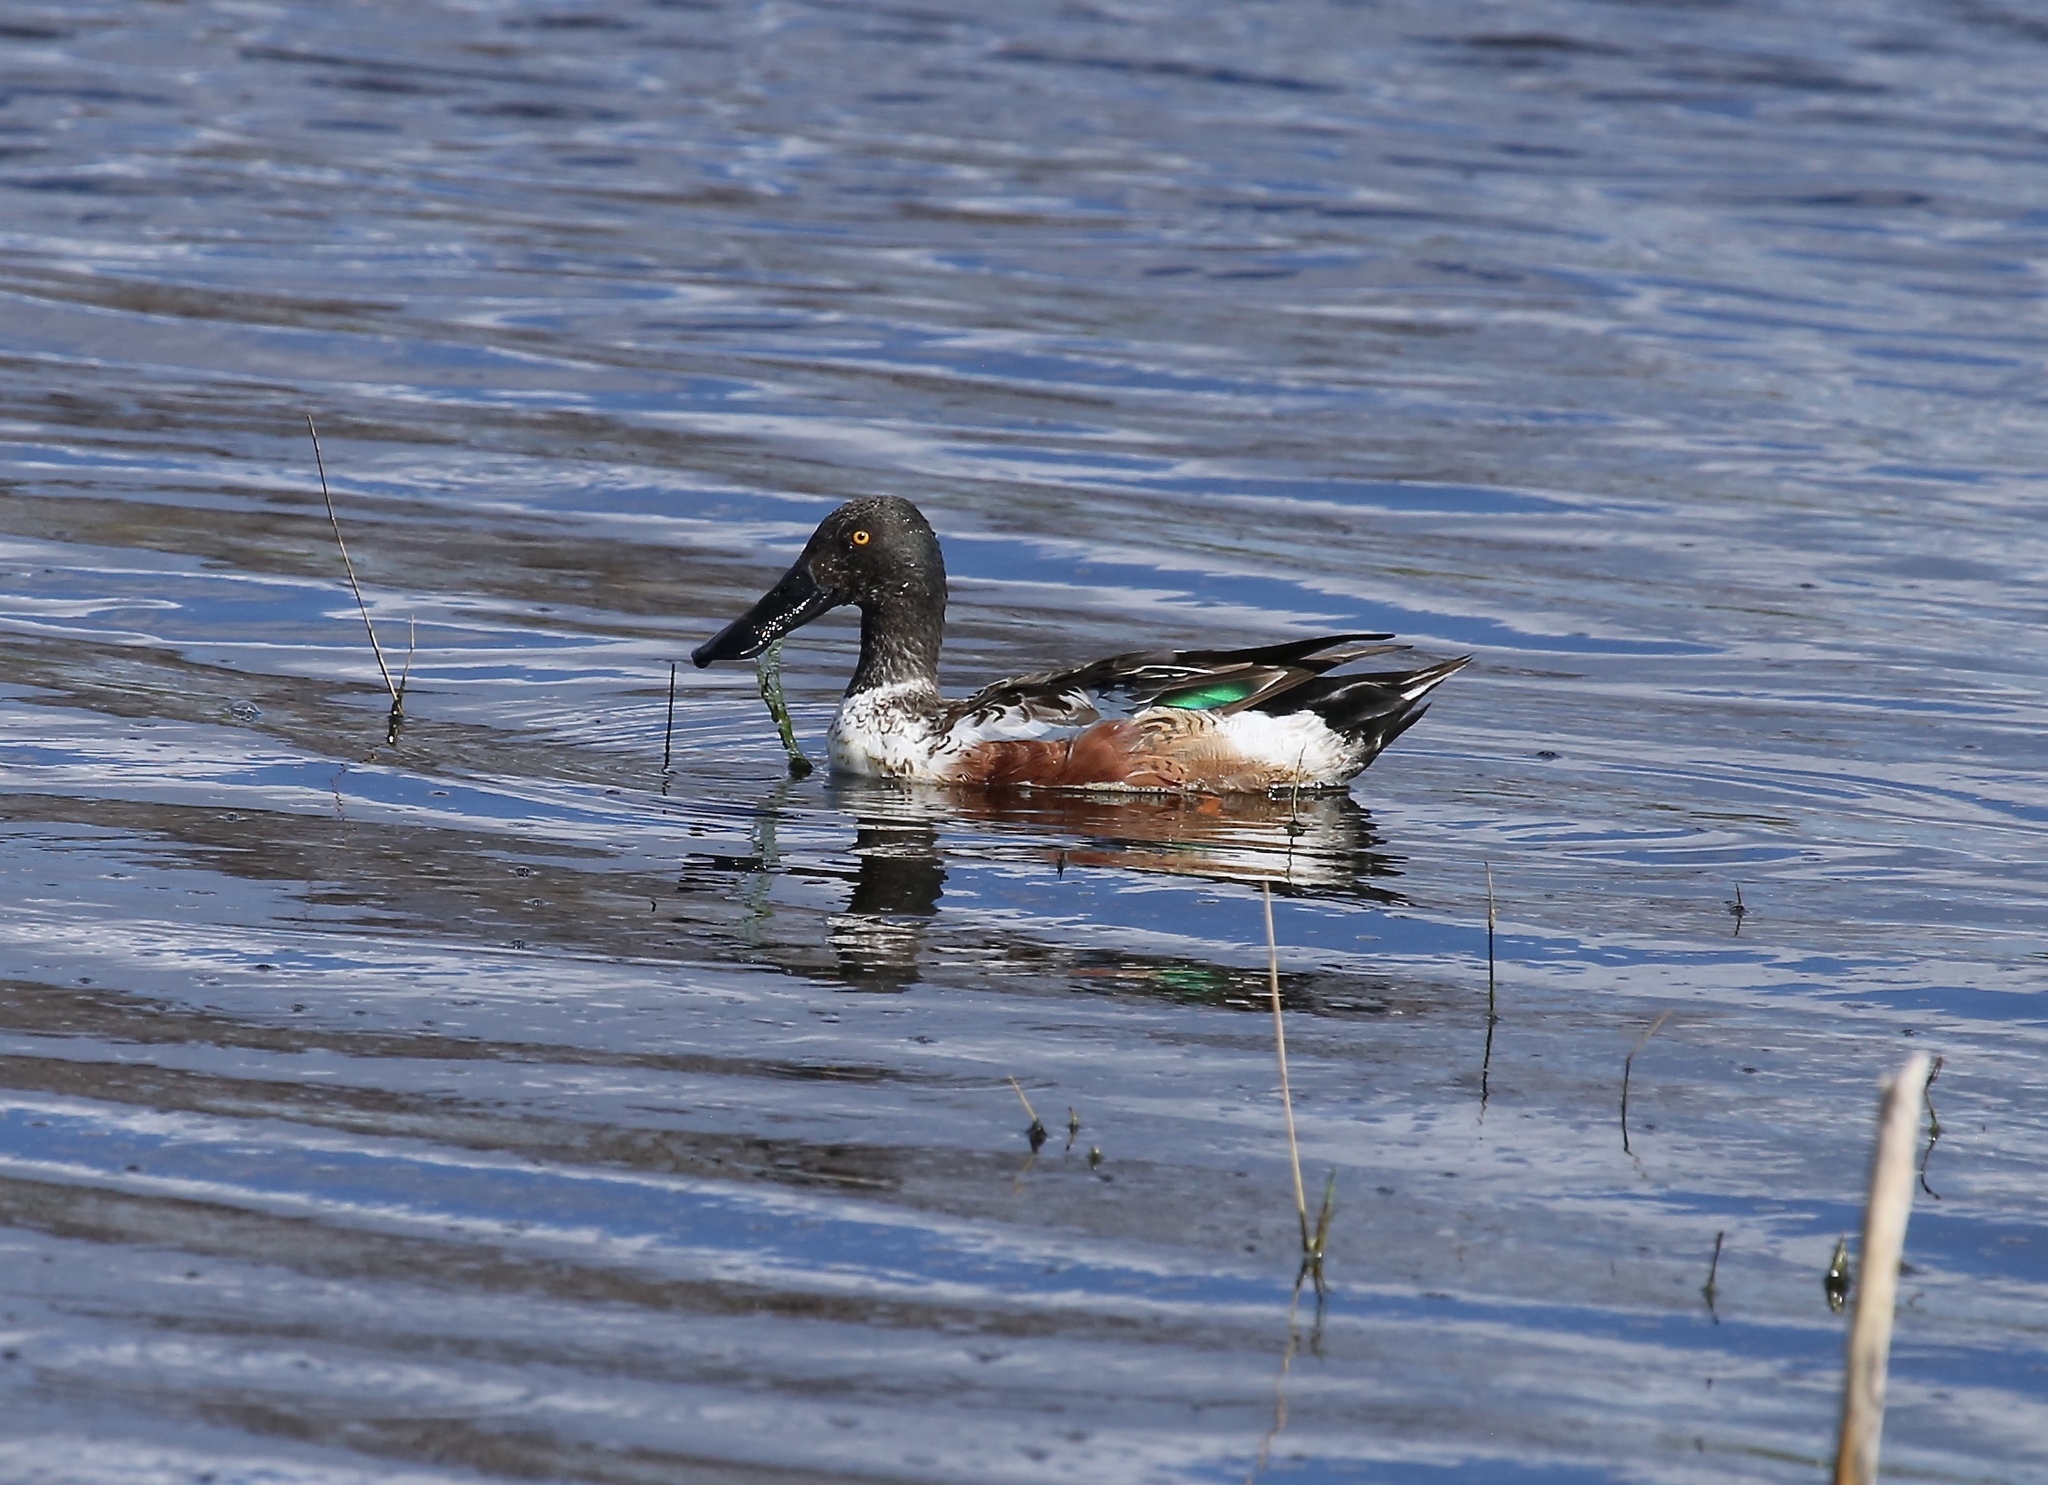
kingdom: Animalia
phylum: Chordata
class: Aves
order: Anseriformes
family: Anatidae
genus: Spatula
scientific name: Spatula clypeata
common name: Northern shoveler
